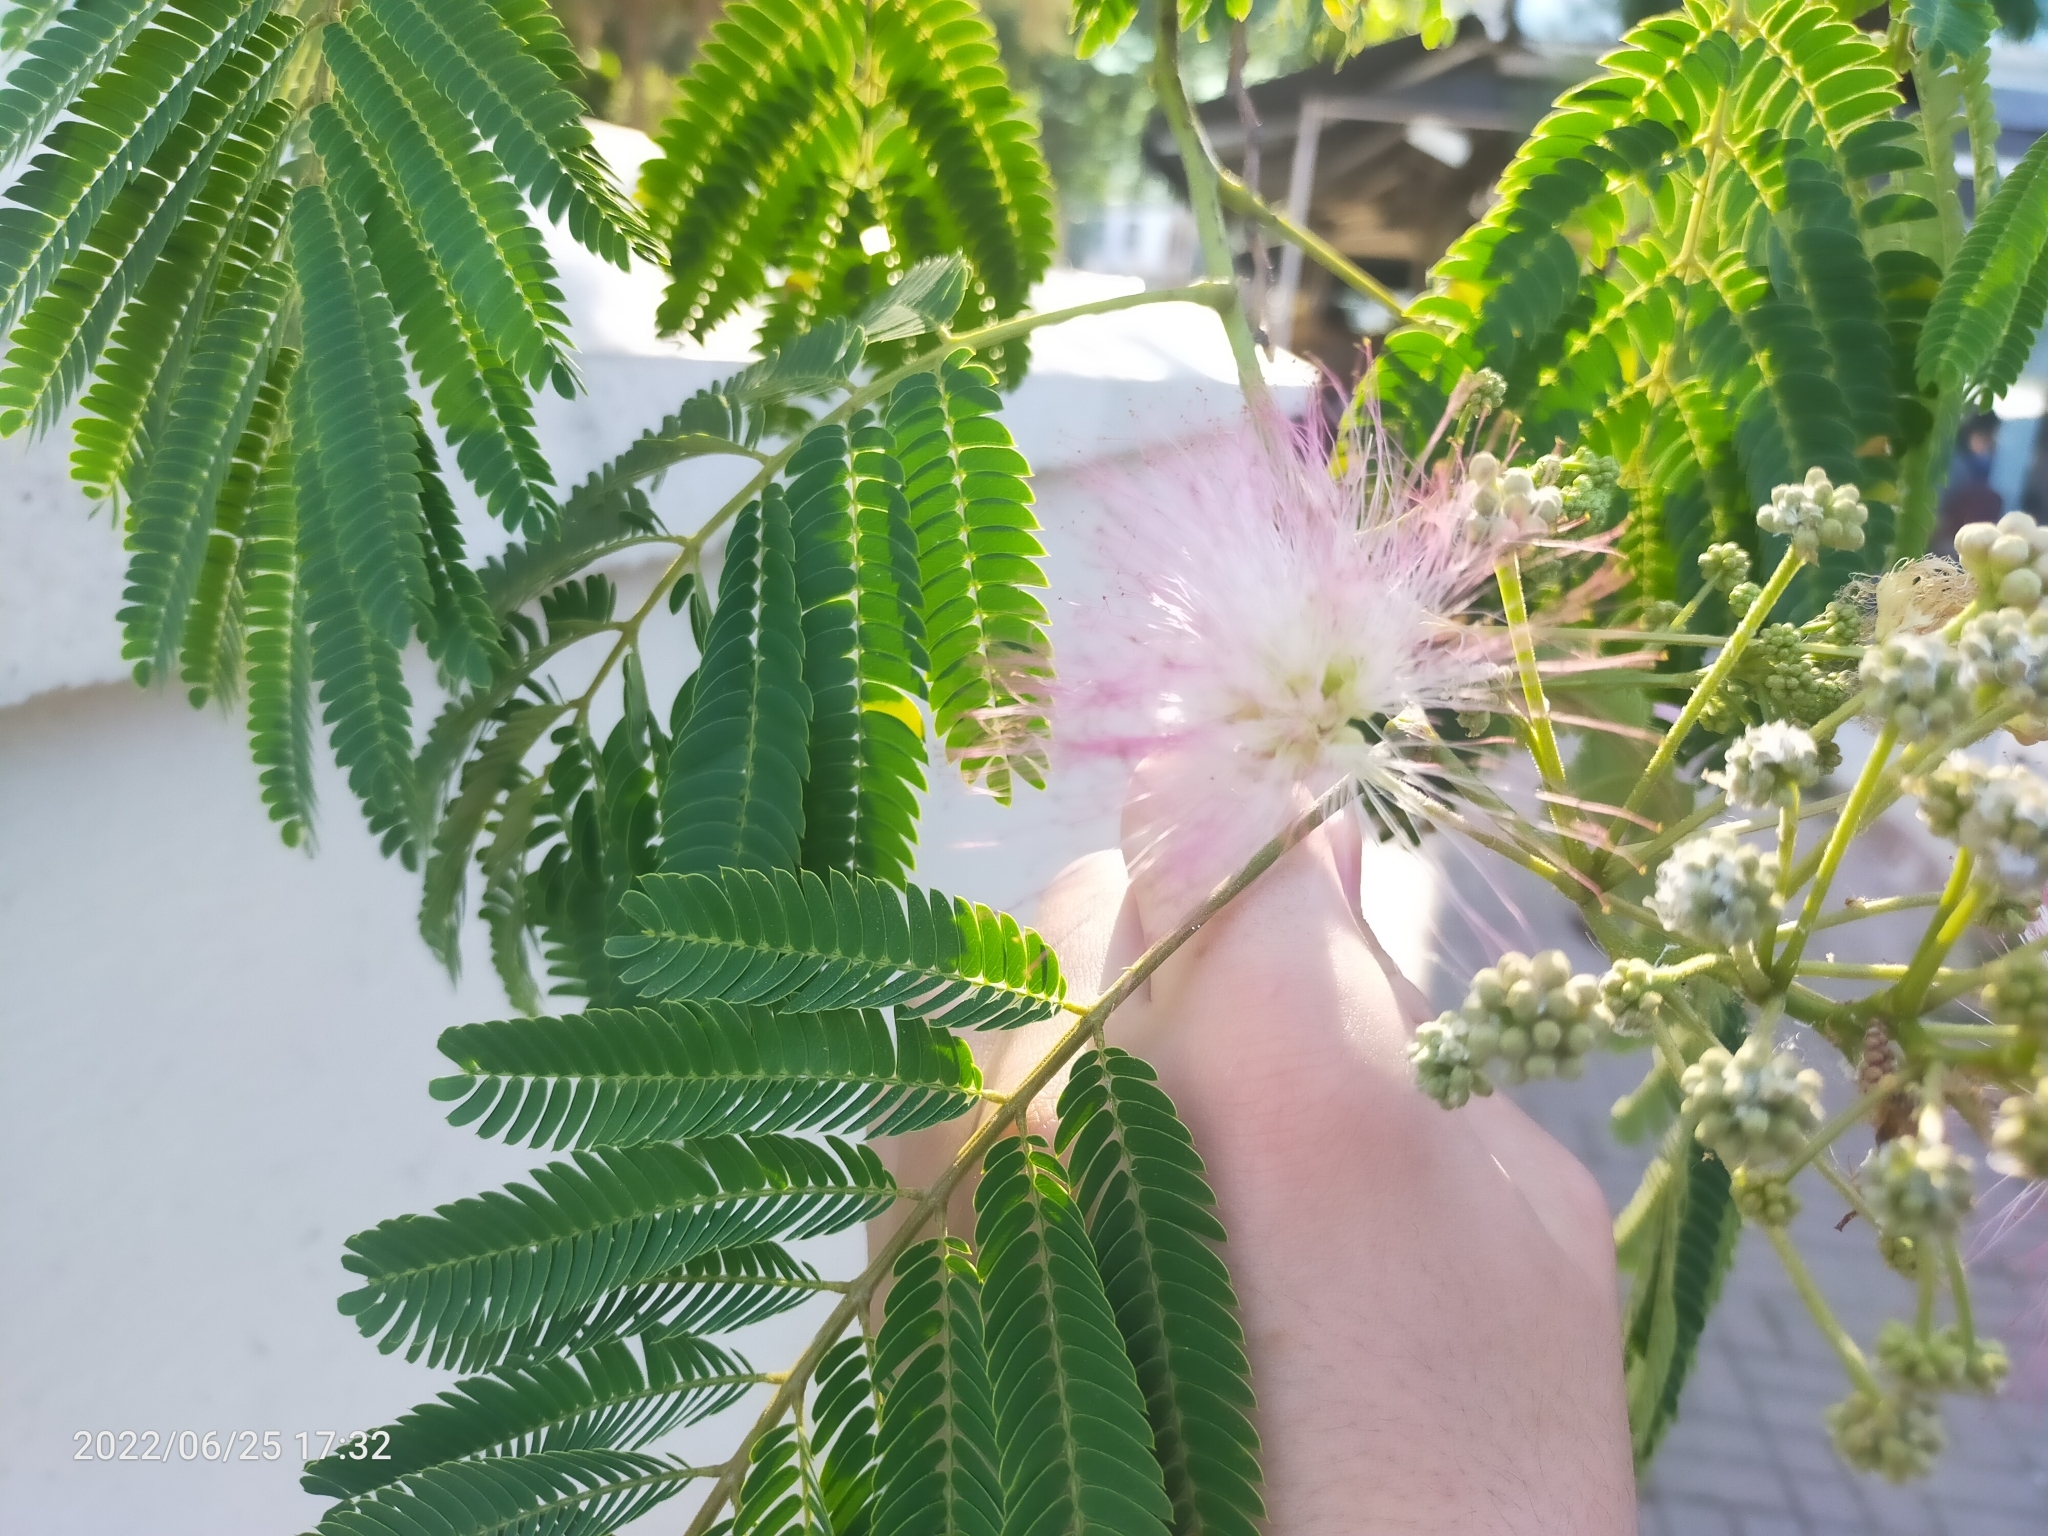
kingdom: Plantae
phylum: Tracheophyta
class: Magnoliopsida
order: Fabales
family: Fabaceae
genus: Albizia
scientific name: Albizia julibrissin
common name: Silktree
